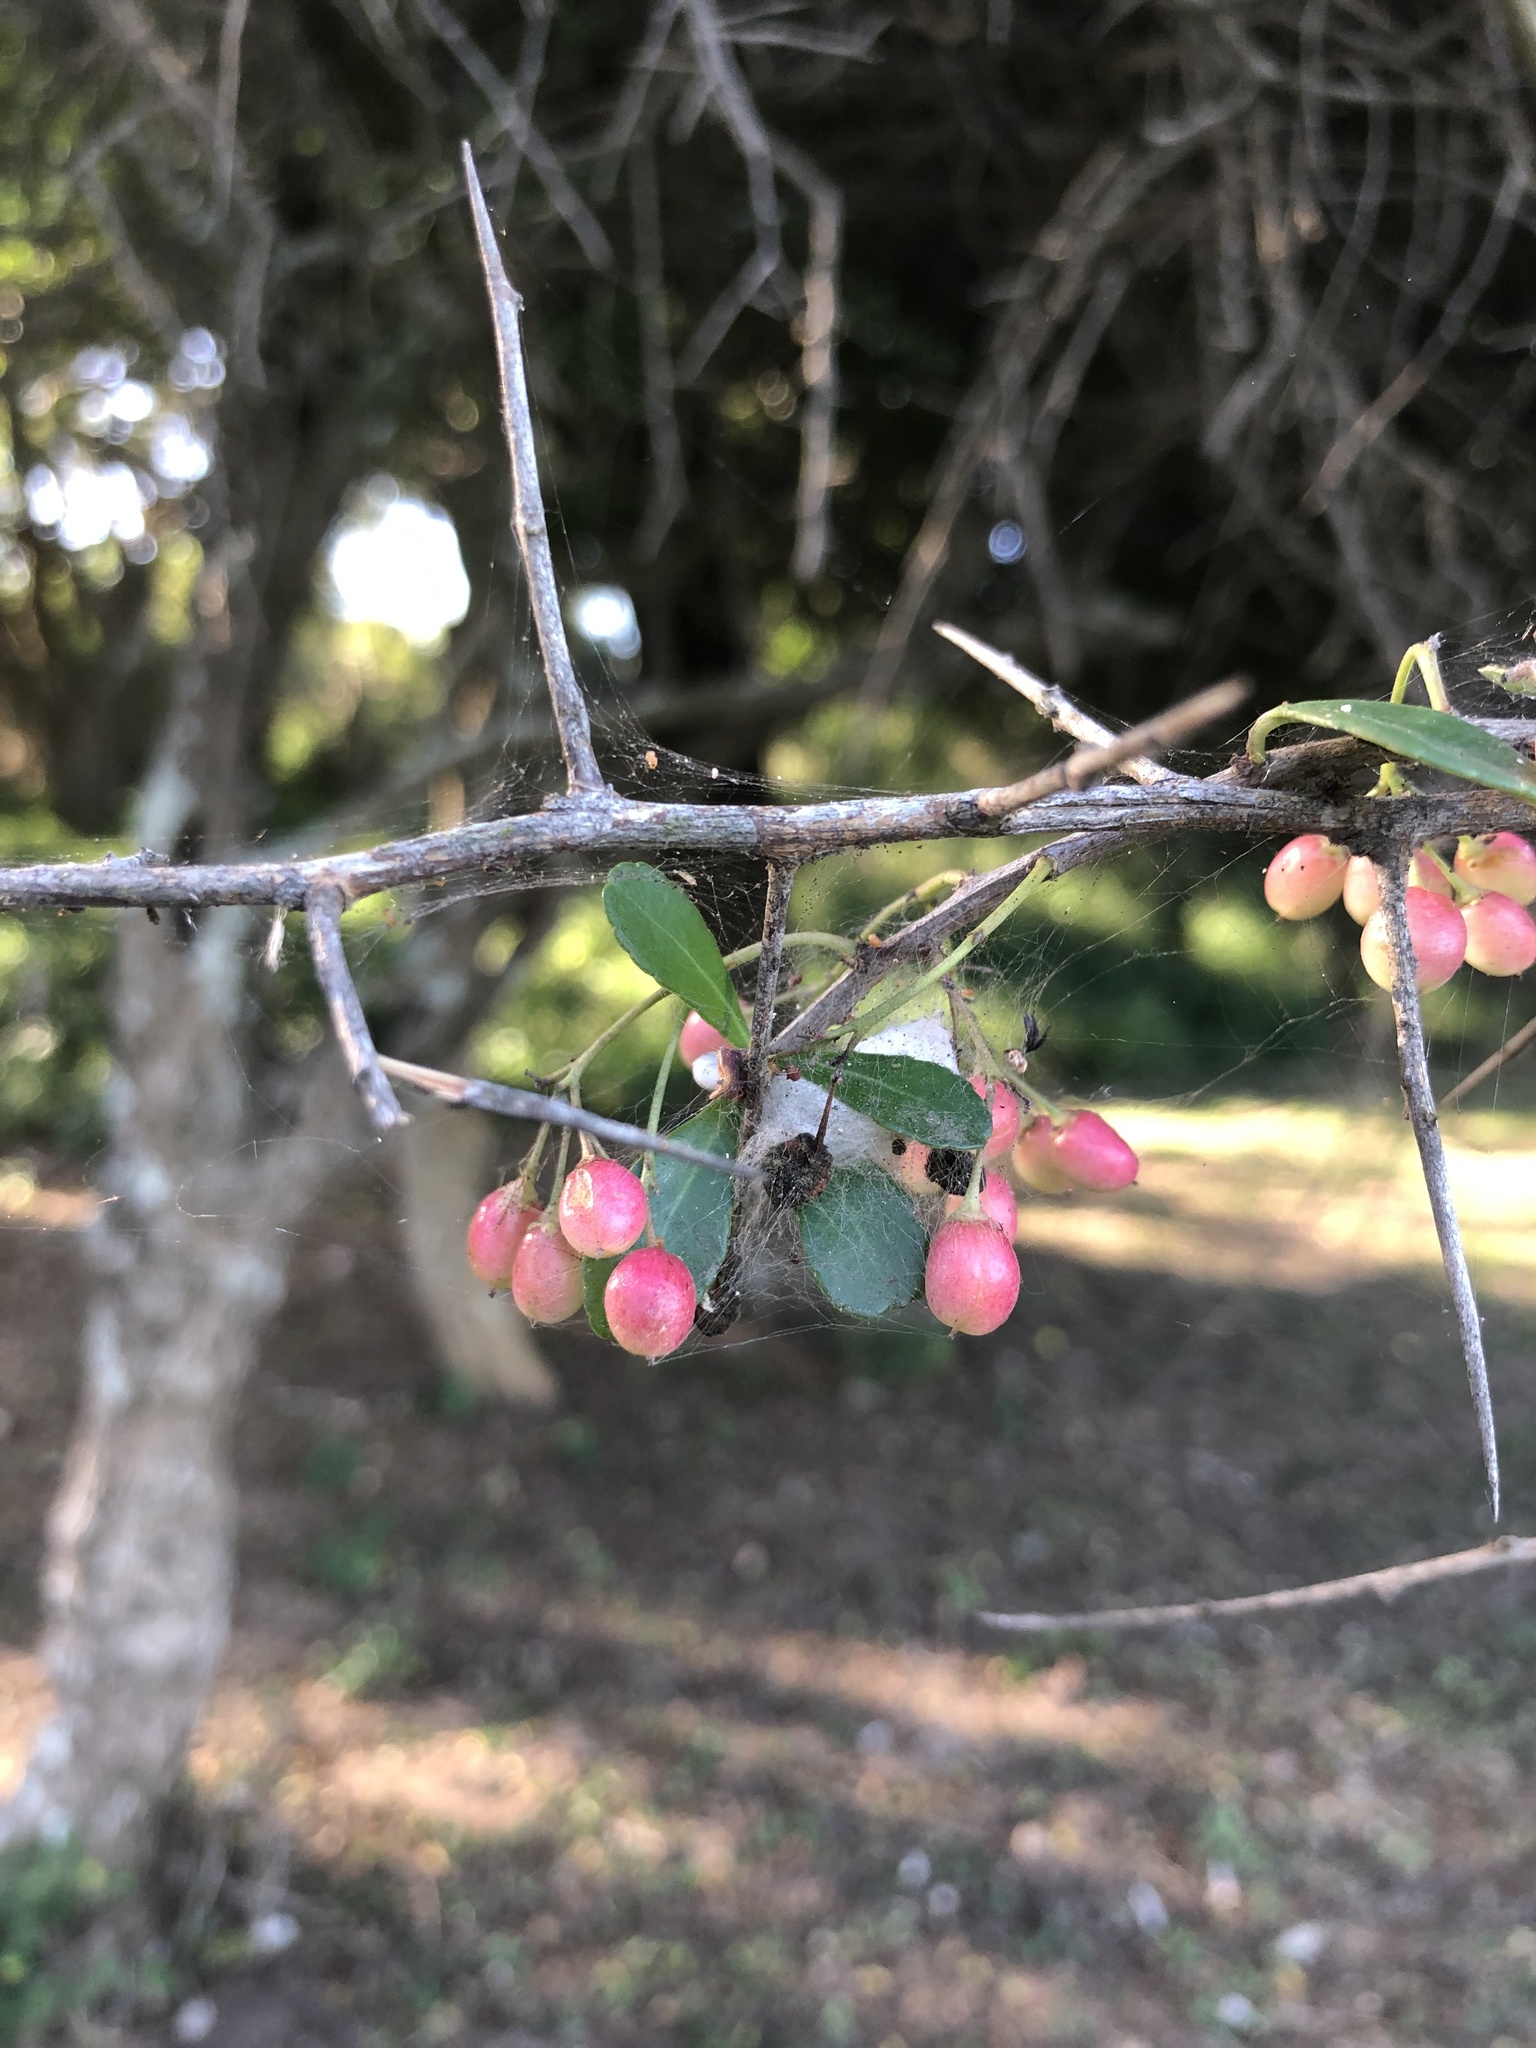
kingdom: Plantae
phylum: Tracheophyta
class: Magnoliopsida
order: Celastrales
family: Celastraceae
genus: Gymnosporia
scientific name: Gymnosporia maranguensis
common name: Tropical spike-thorn
